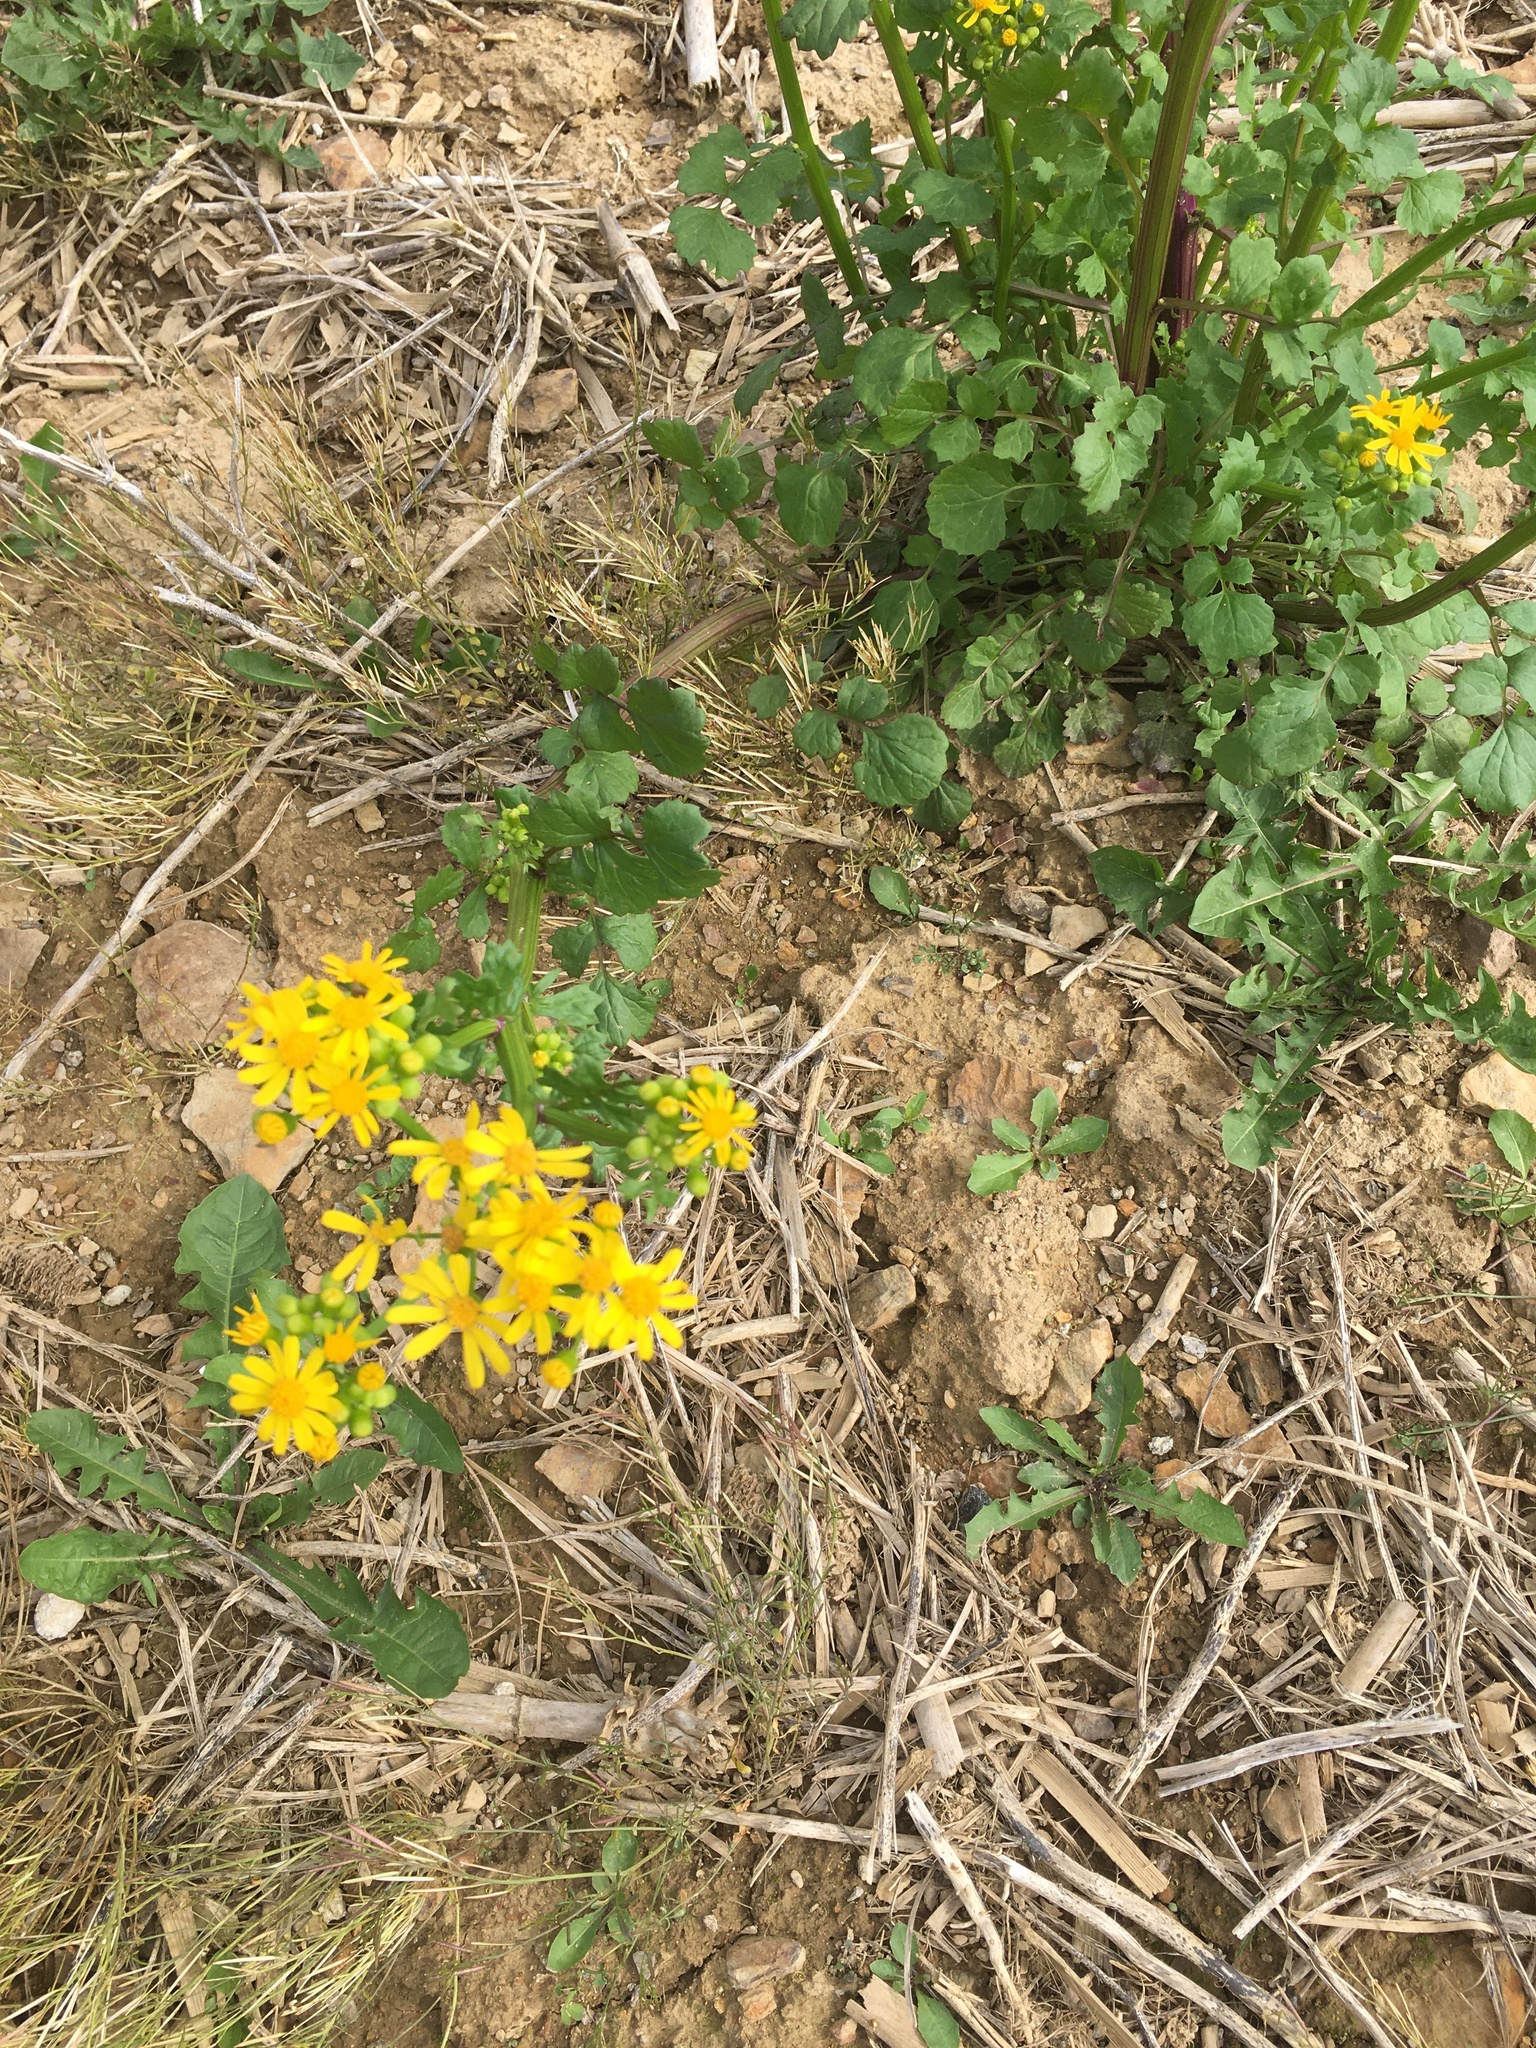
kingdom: Plantae
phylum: Tracheophyta
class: Magnoliopsida
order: Asterales
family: Asteraceae
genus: Packera
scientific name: Packera glabella
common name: Butterweed
